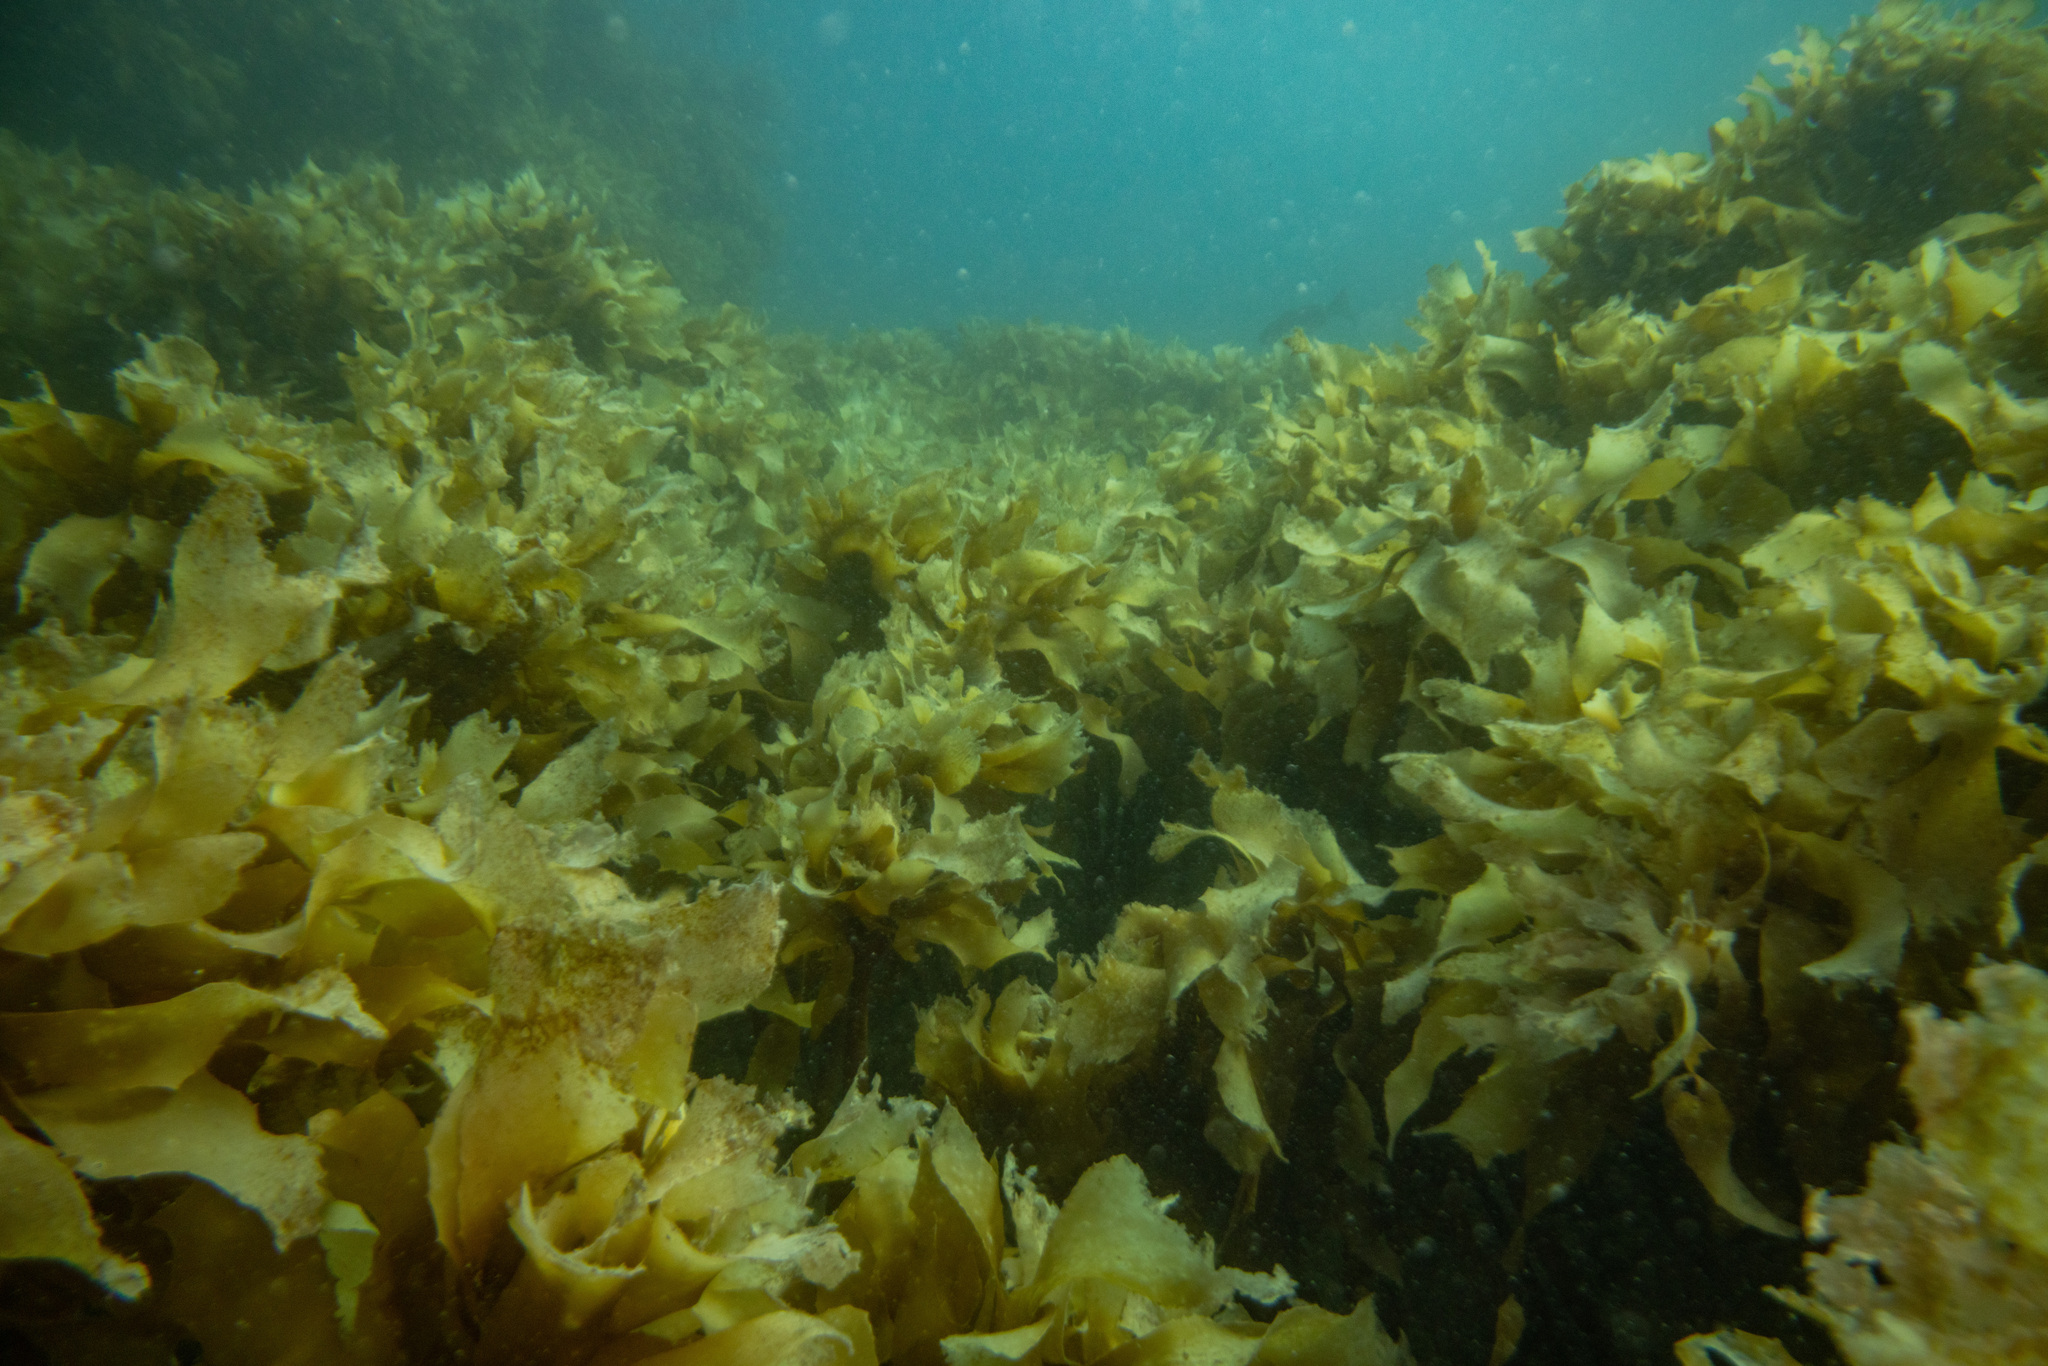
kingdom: Chromista
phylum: Ochrophyta
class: Phaeophyceae
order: Laminariales
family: Lessoniaceae
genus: Ecklonia
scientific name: Ecklonia radiata
